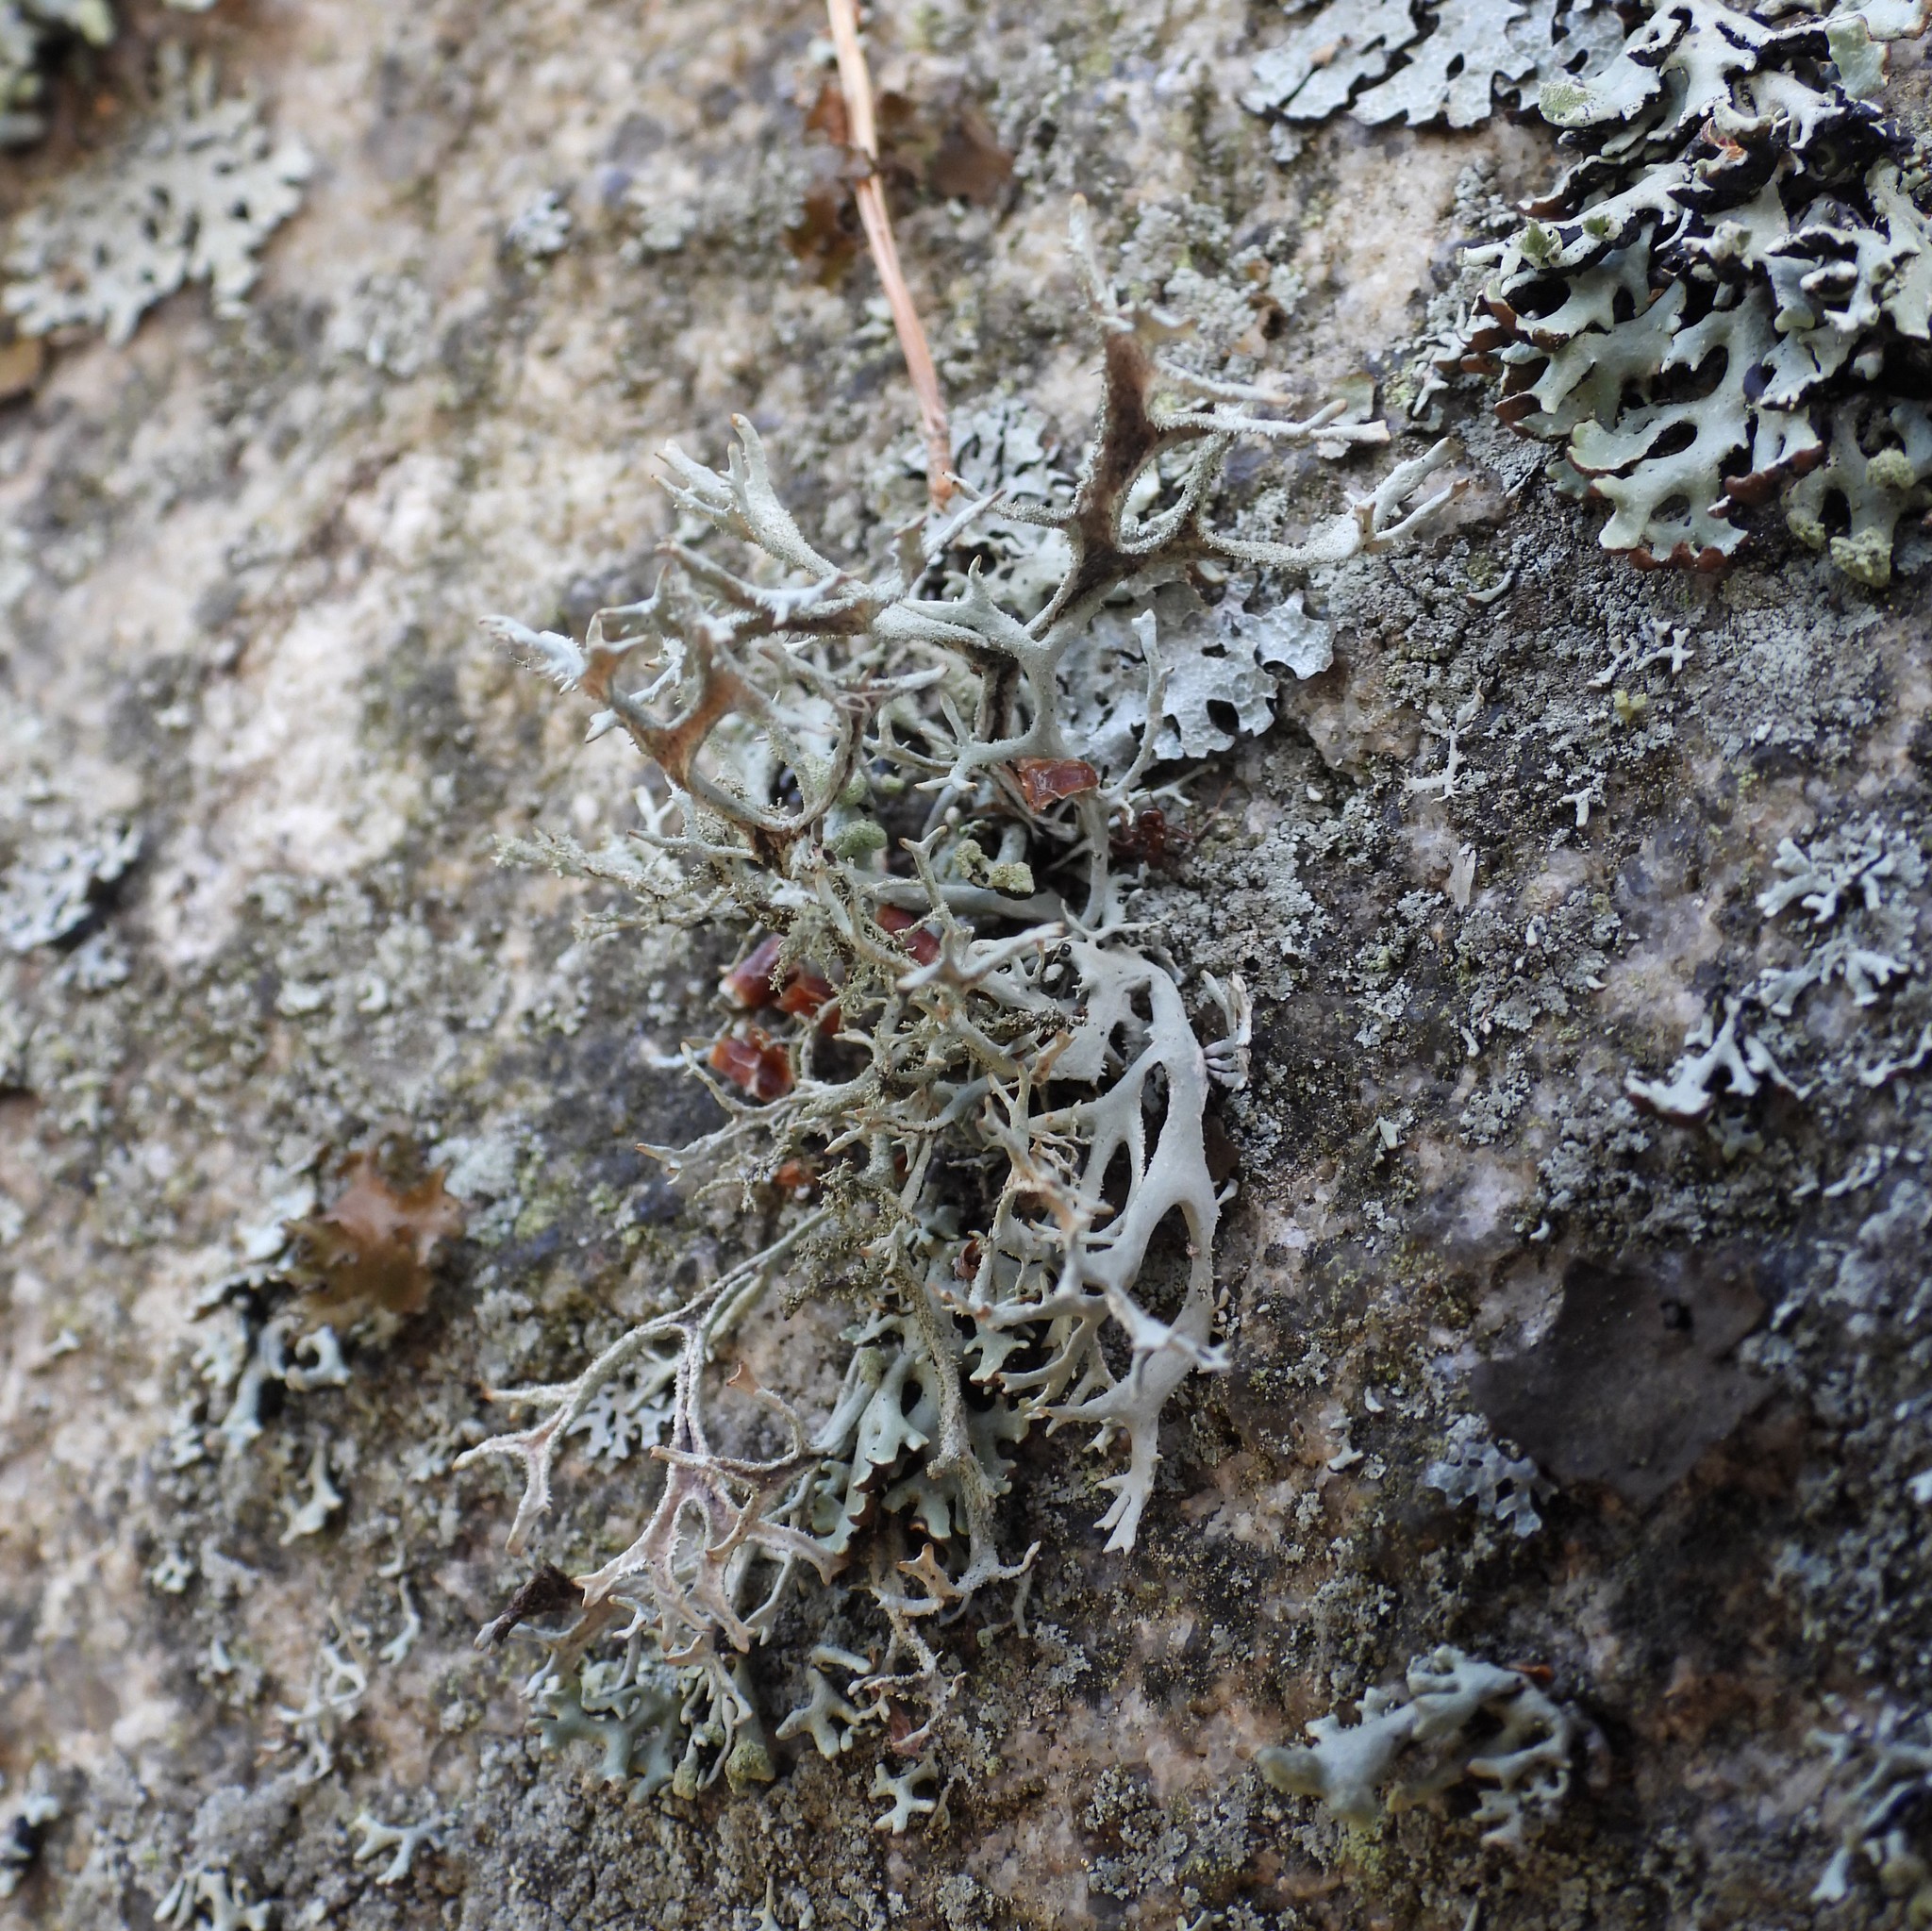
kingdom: Fungi
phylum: Ascomycota
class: Lecanoromycetes
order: Lecanorales
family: Parmeliaceae
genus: Pseudevernia
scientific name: Pseudevernia furfuracea
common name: Tree moss
